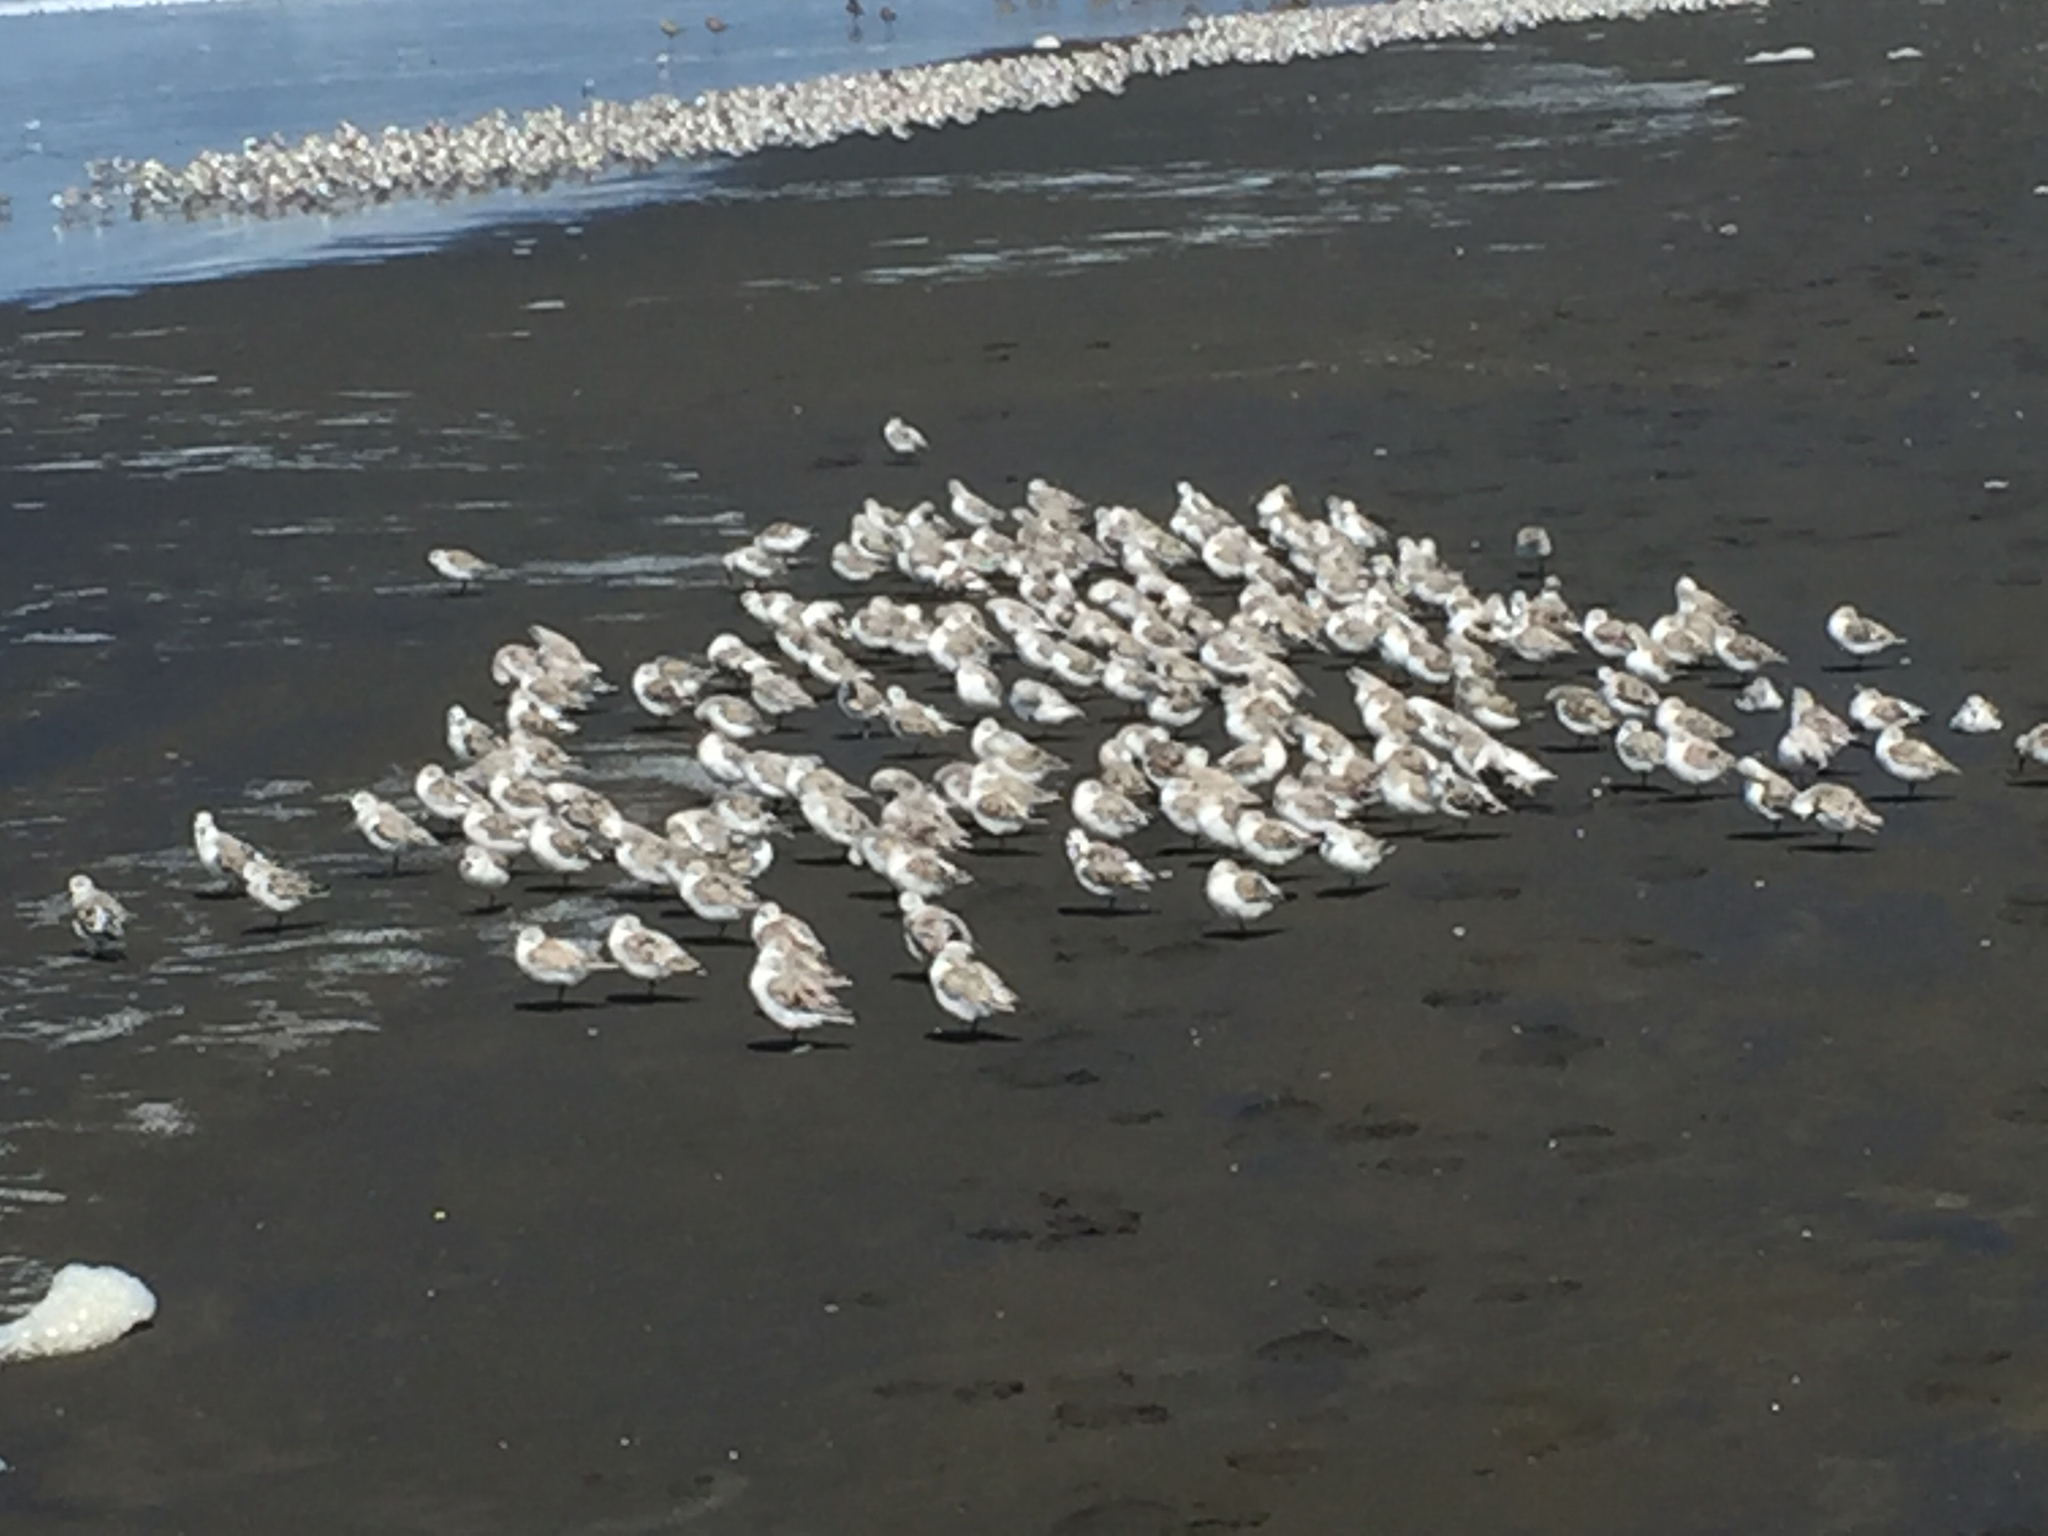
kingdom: Animalia
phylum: Chordata
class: Aves
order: Charadriiformes
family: Scolopacidae
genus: Calidris
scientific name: Calidris alba
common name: Sanderling
